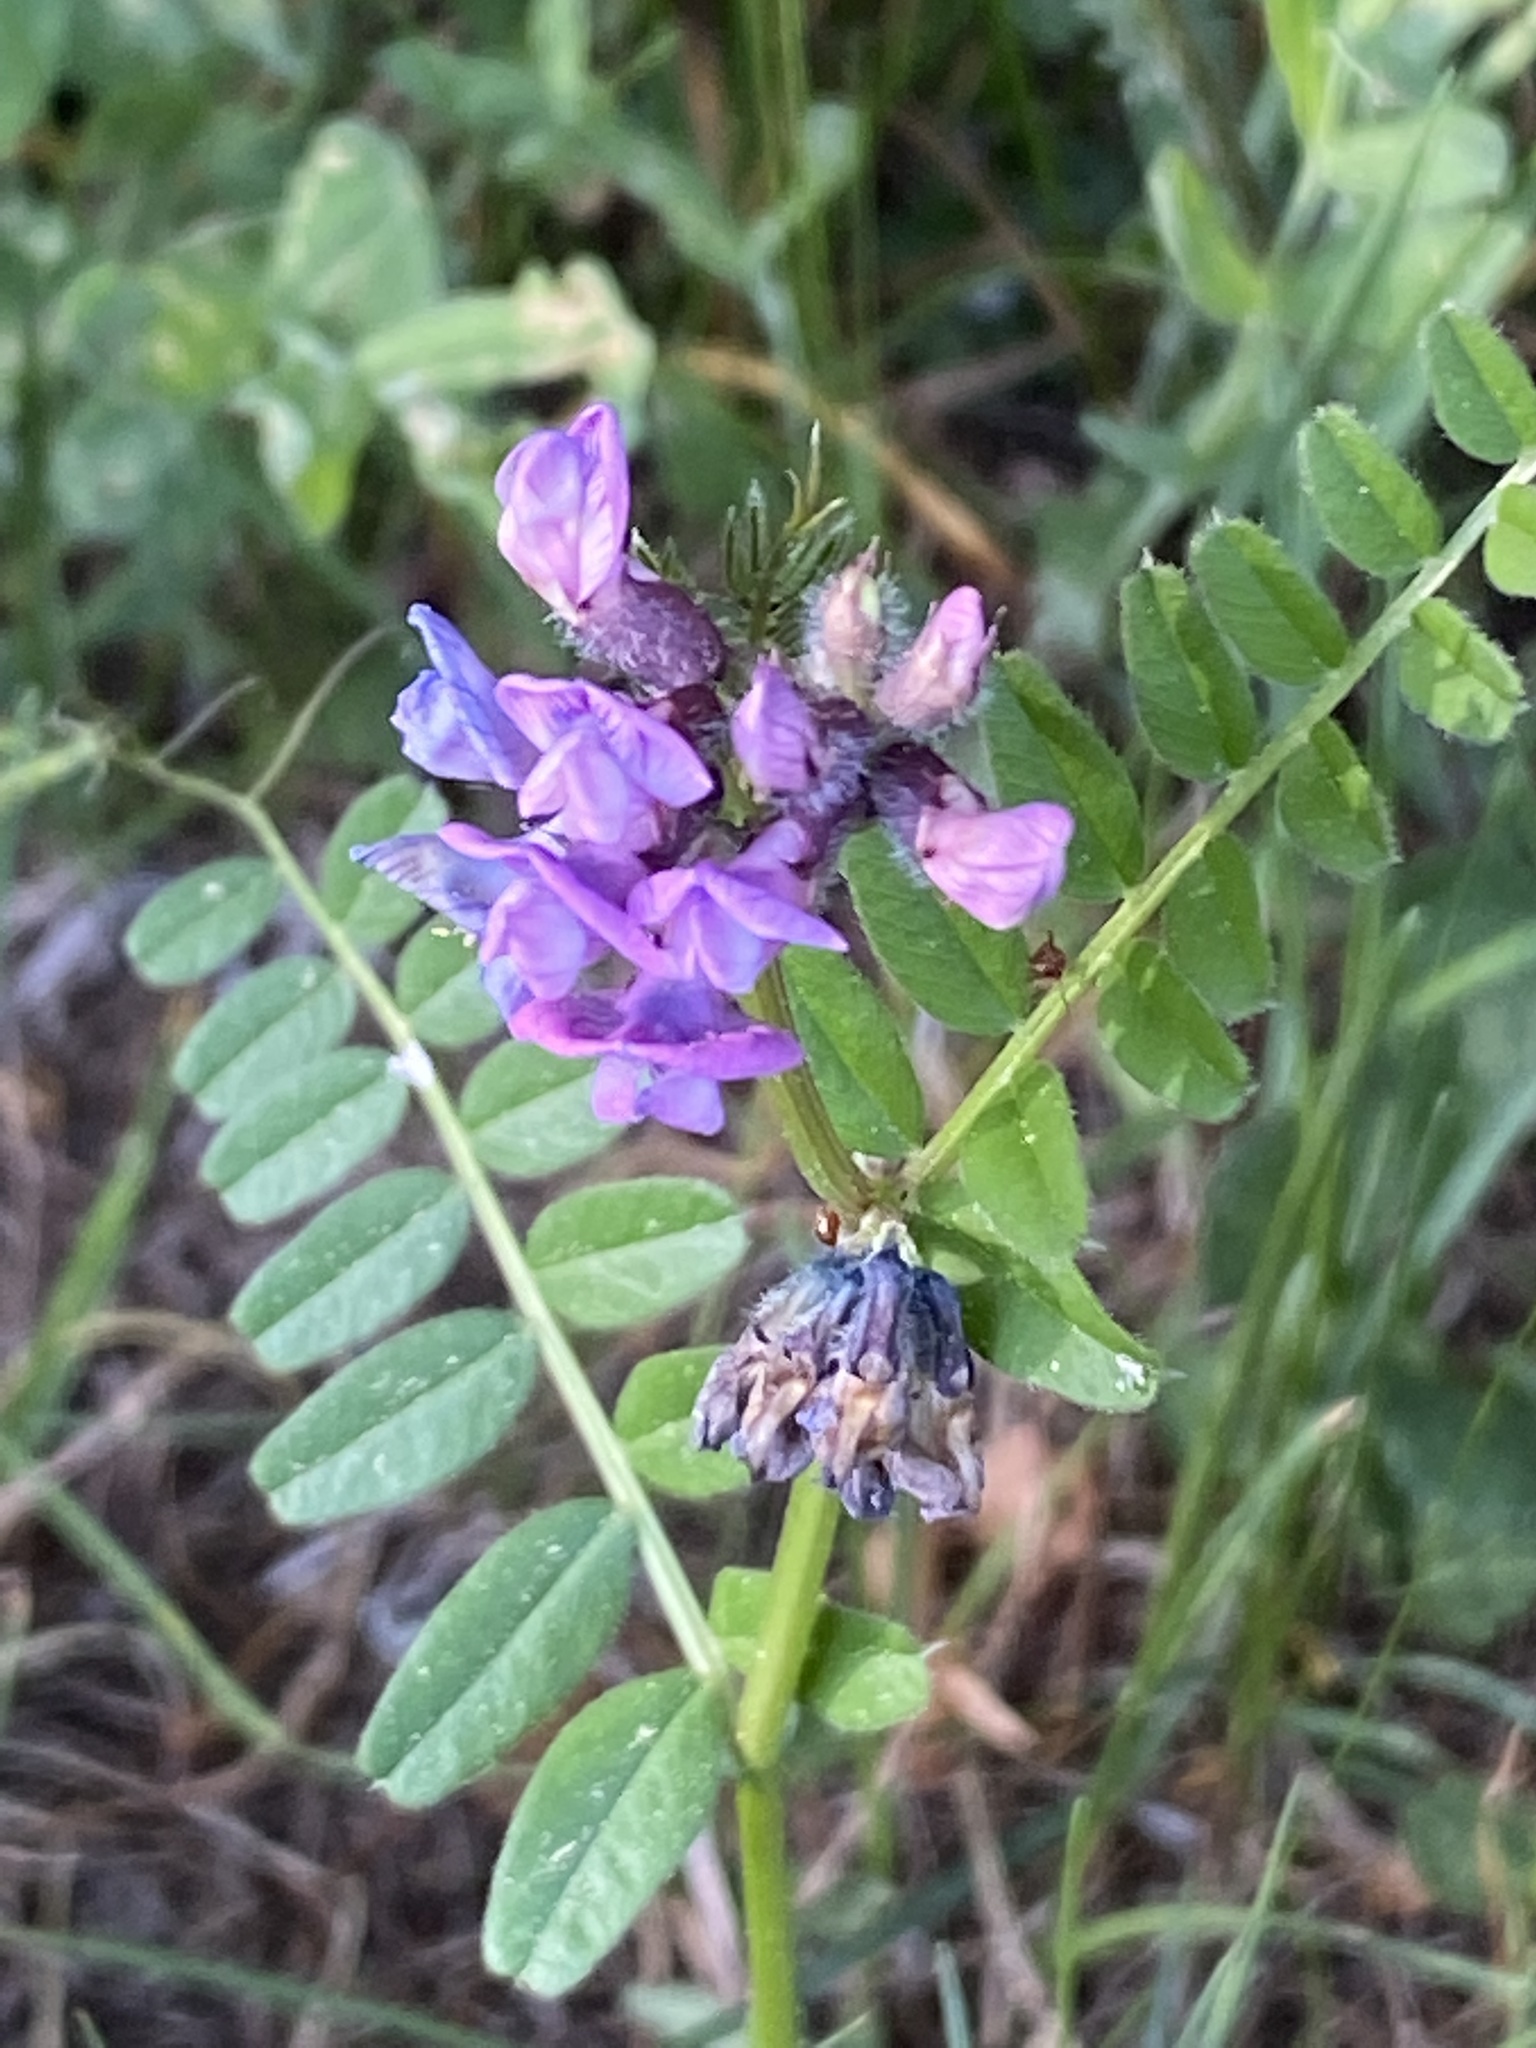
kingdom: Plantae
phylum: Tracheophyta
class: Magnoliopsida
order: Fabales
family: Fabaceae
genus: Vicia
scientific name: Vicia sepium
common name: Bush vetch
